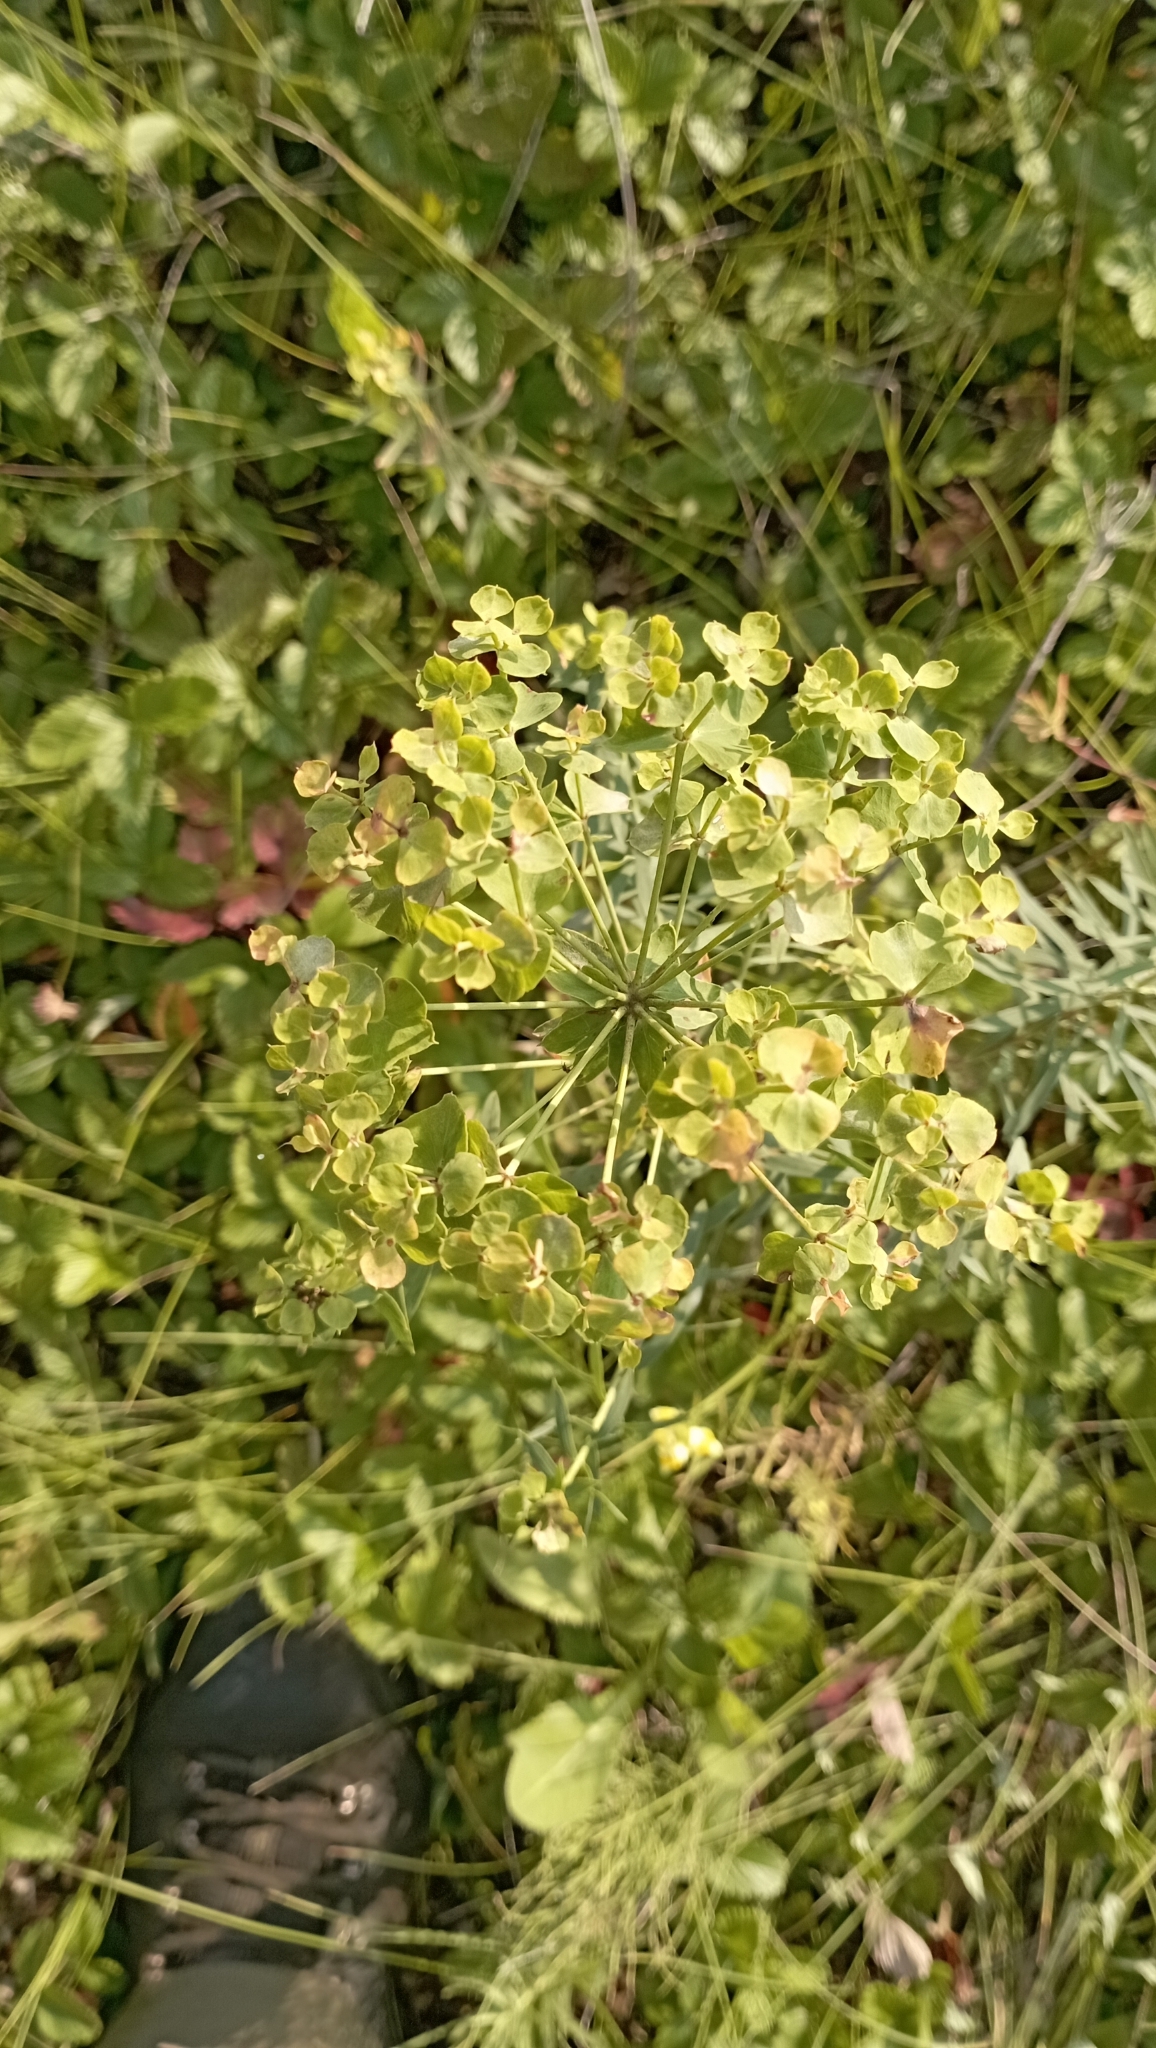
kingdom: Plantae
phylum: Tracheophyta
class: Magnoliopsida
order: Malpighiales
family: Euphorbiaceae
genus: Euphorbia
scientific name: Euphorbia virgata
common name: Leafy spurge
